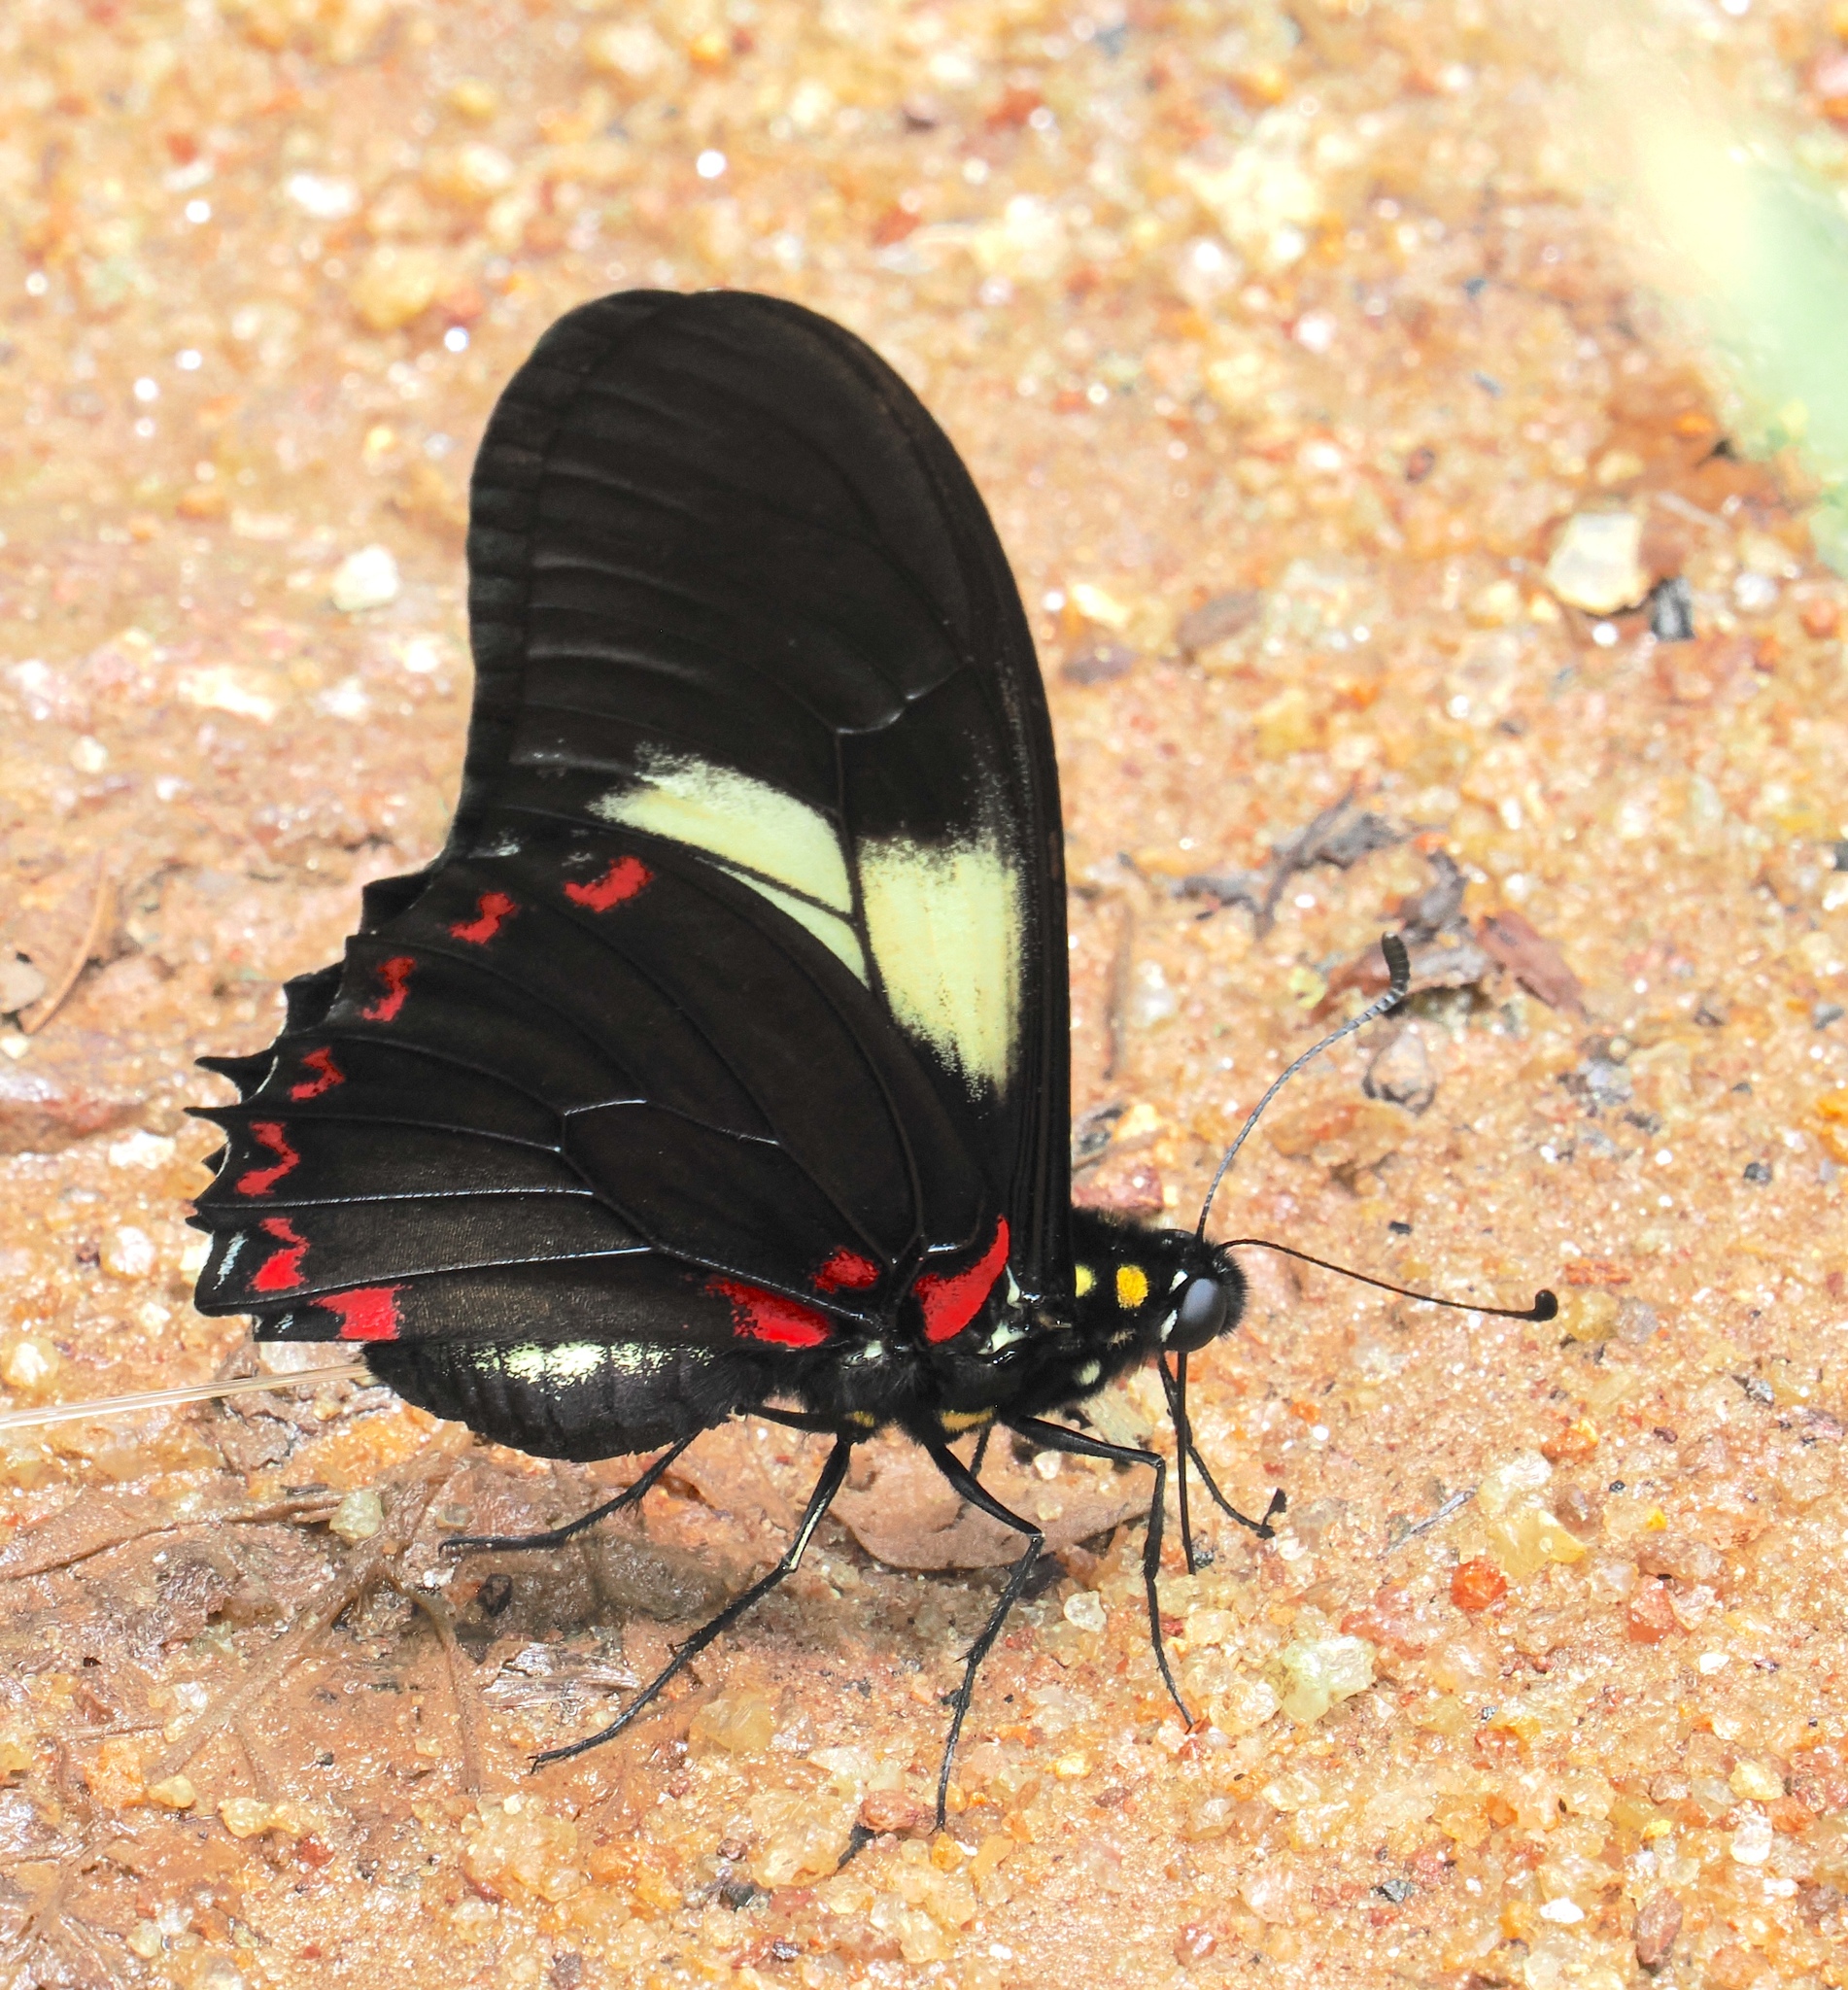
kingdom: Animalia
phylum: Arthropoda
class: Insecta
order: Lepidoptera
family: Papilionidae
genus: Mimoides
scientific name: Mimoides protodamas
